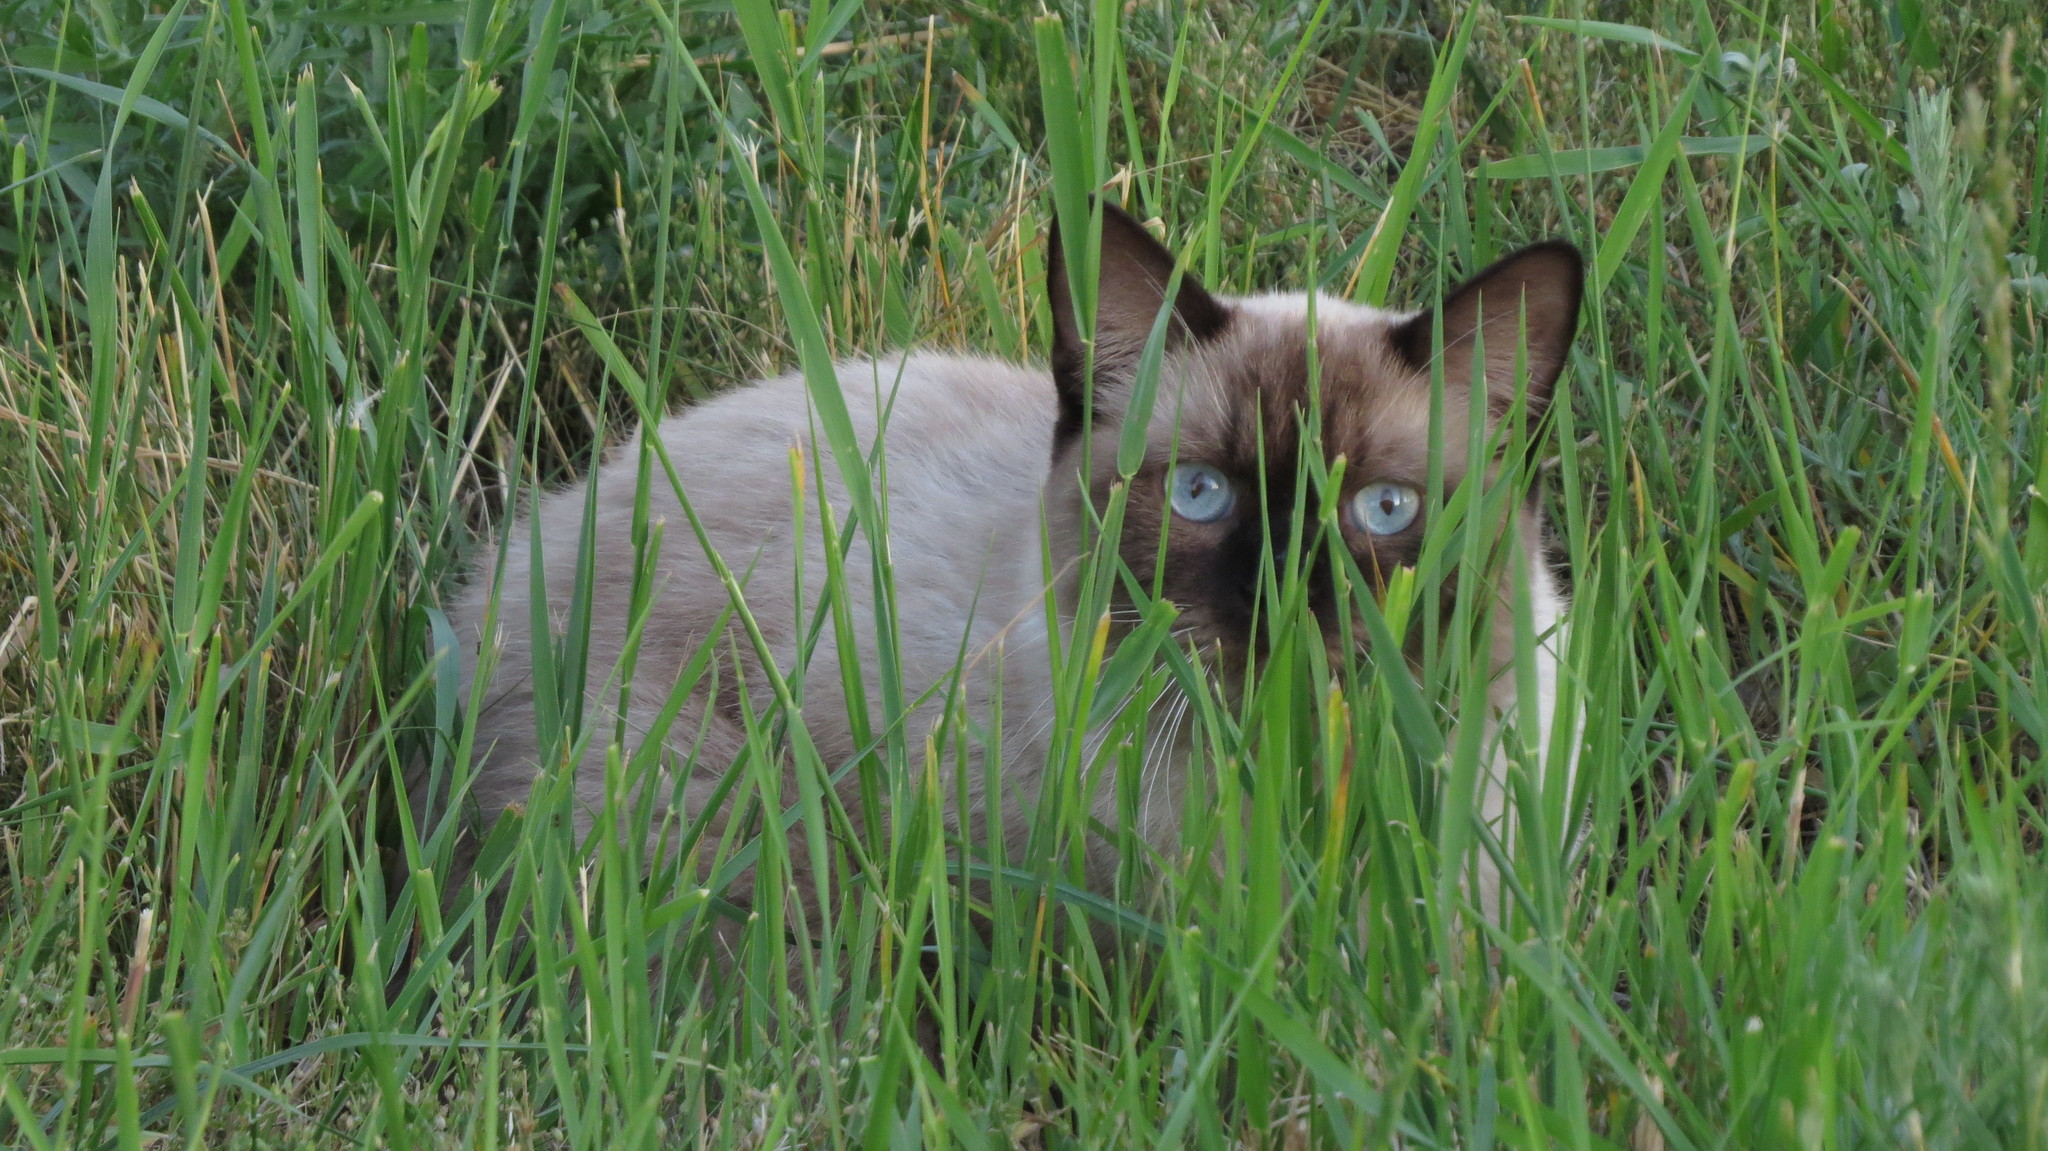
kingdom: Animalia
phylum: Chordata
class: Mammalia
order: Carnivora
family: Felidae
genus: Felis
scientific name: Felis catus
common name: Domestic cat
